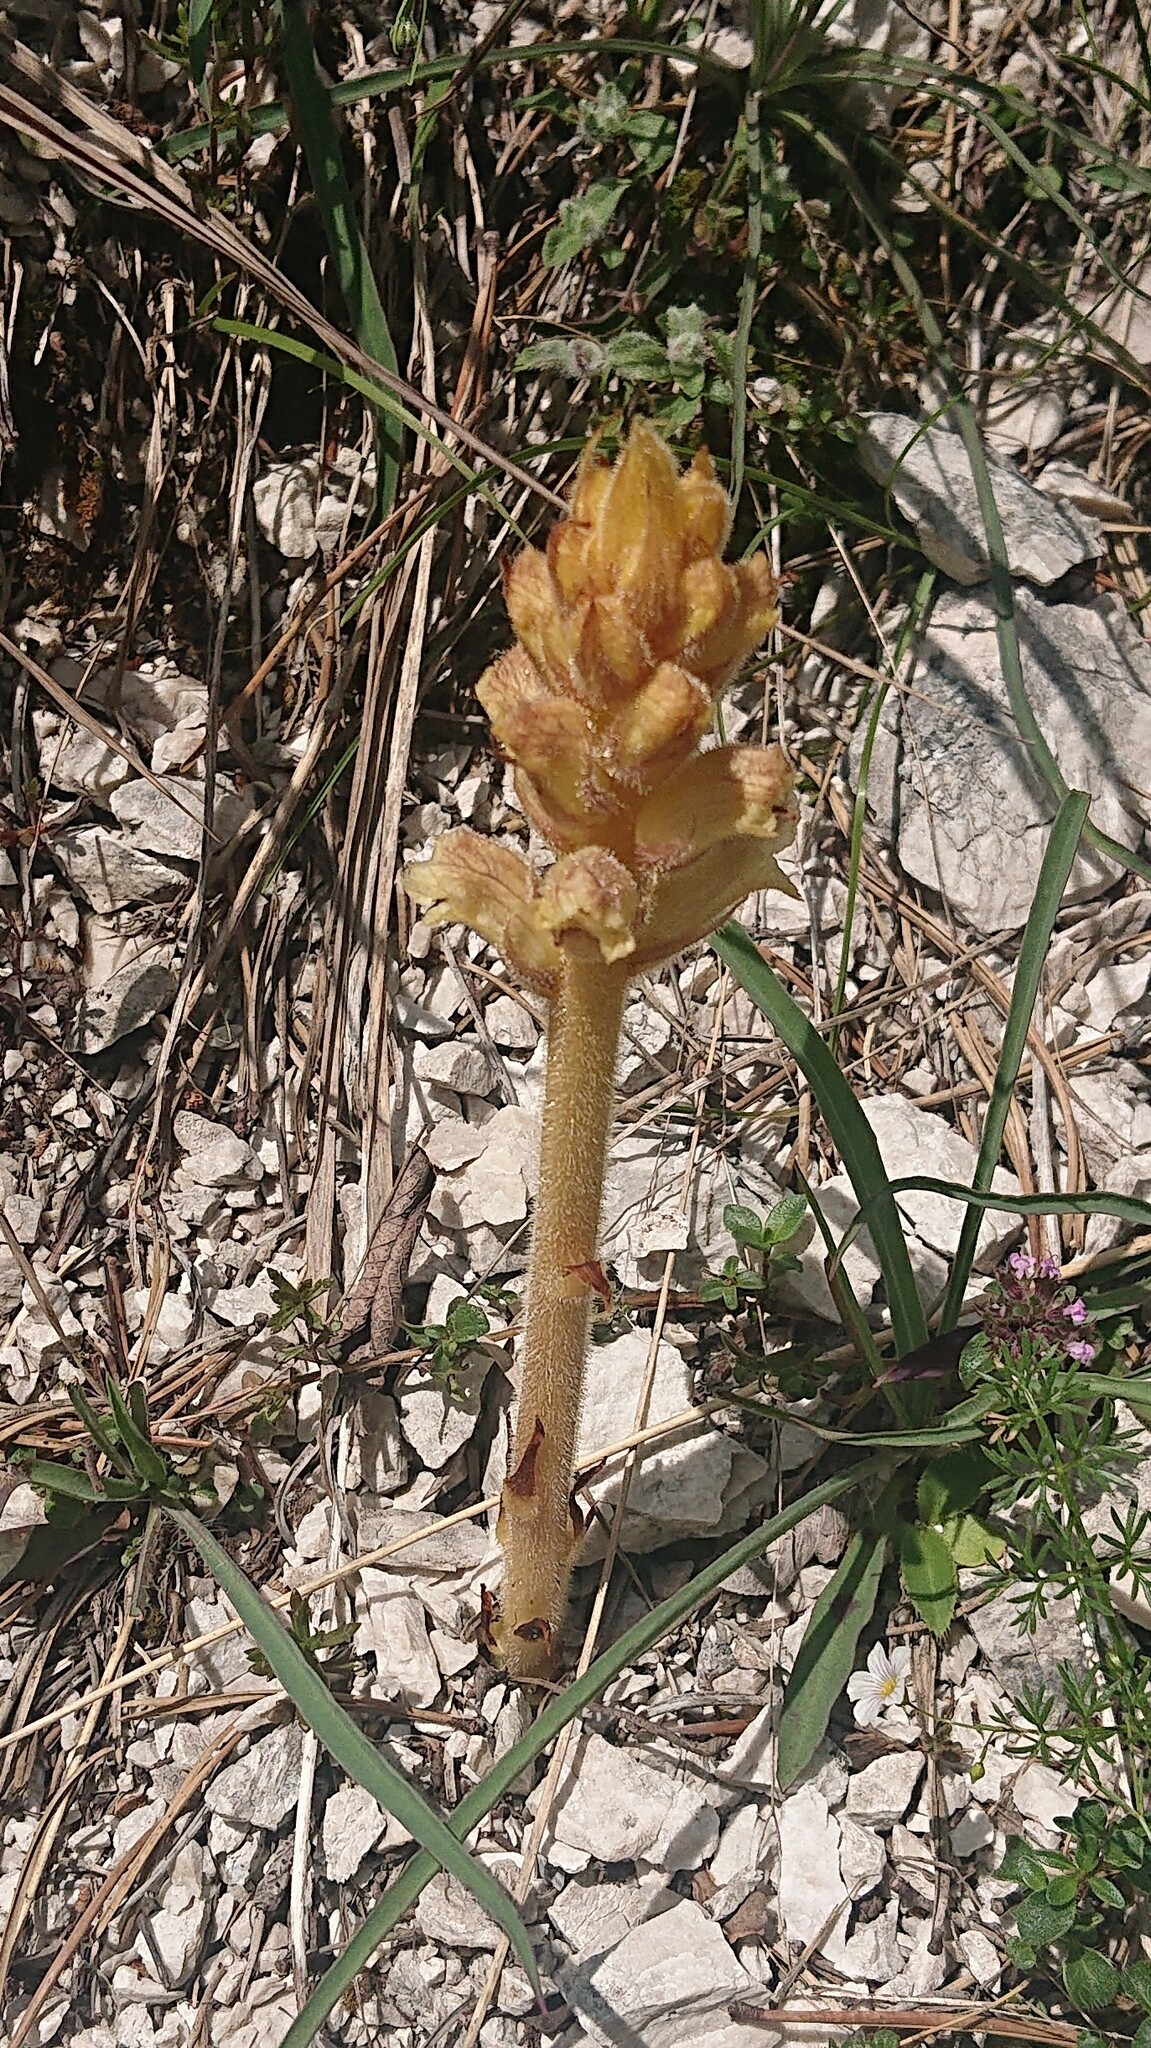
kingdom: Plantae
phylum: Tracheophyta
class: Magnoliopsida
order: Lamiales
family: Orobanchaceae
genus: Orobanche
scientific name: Orobanche alba
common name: Thyme broomrape
